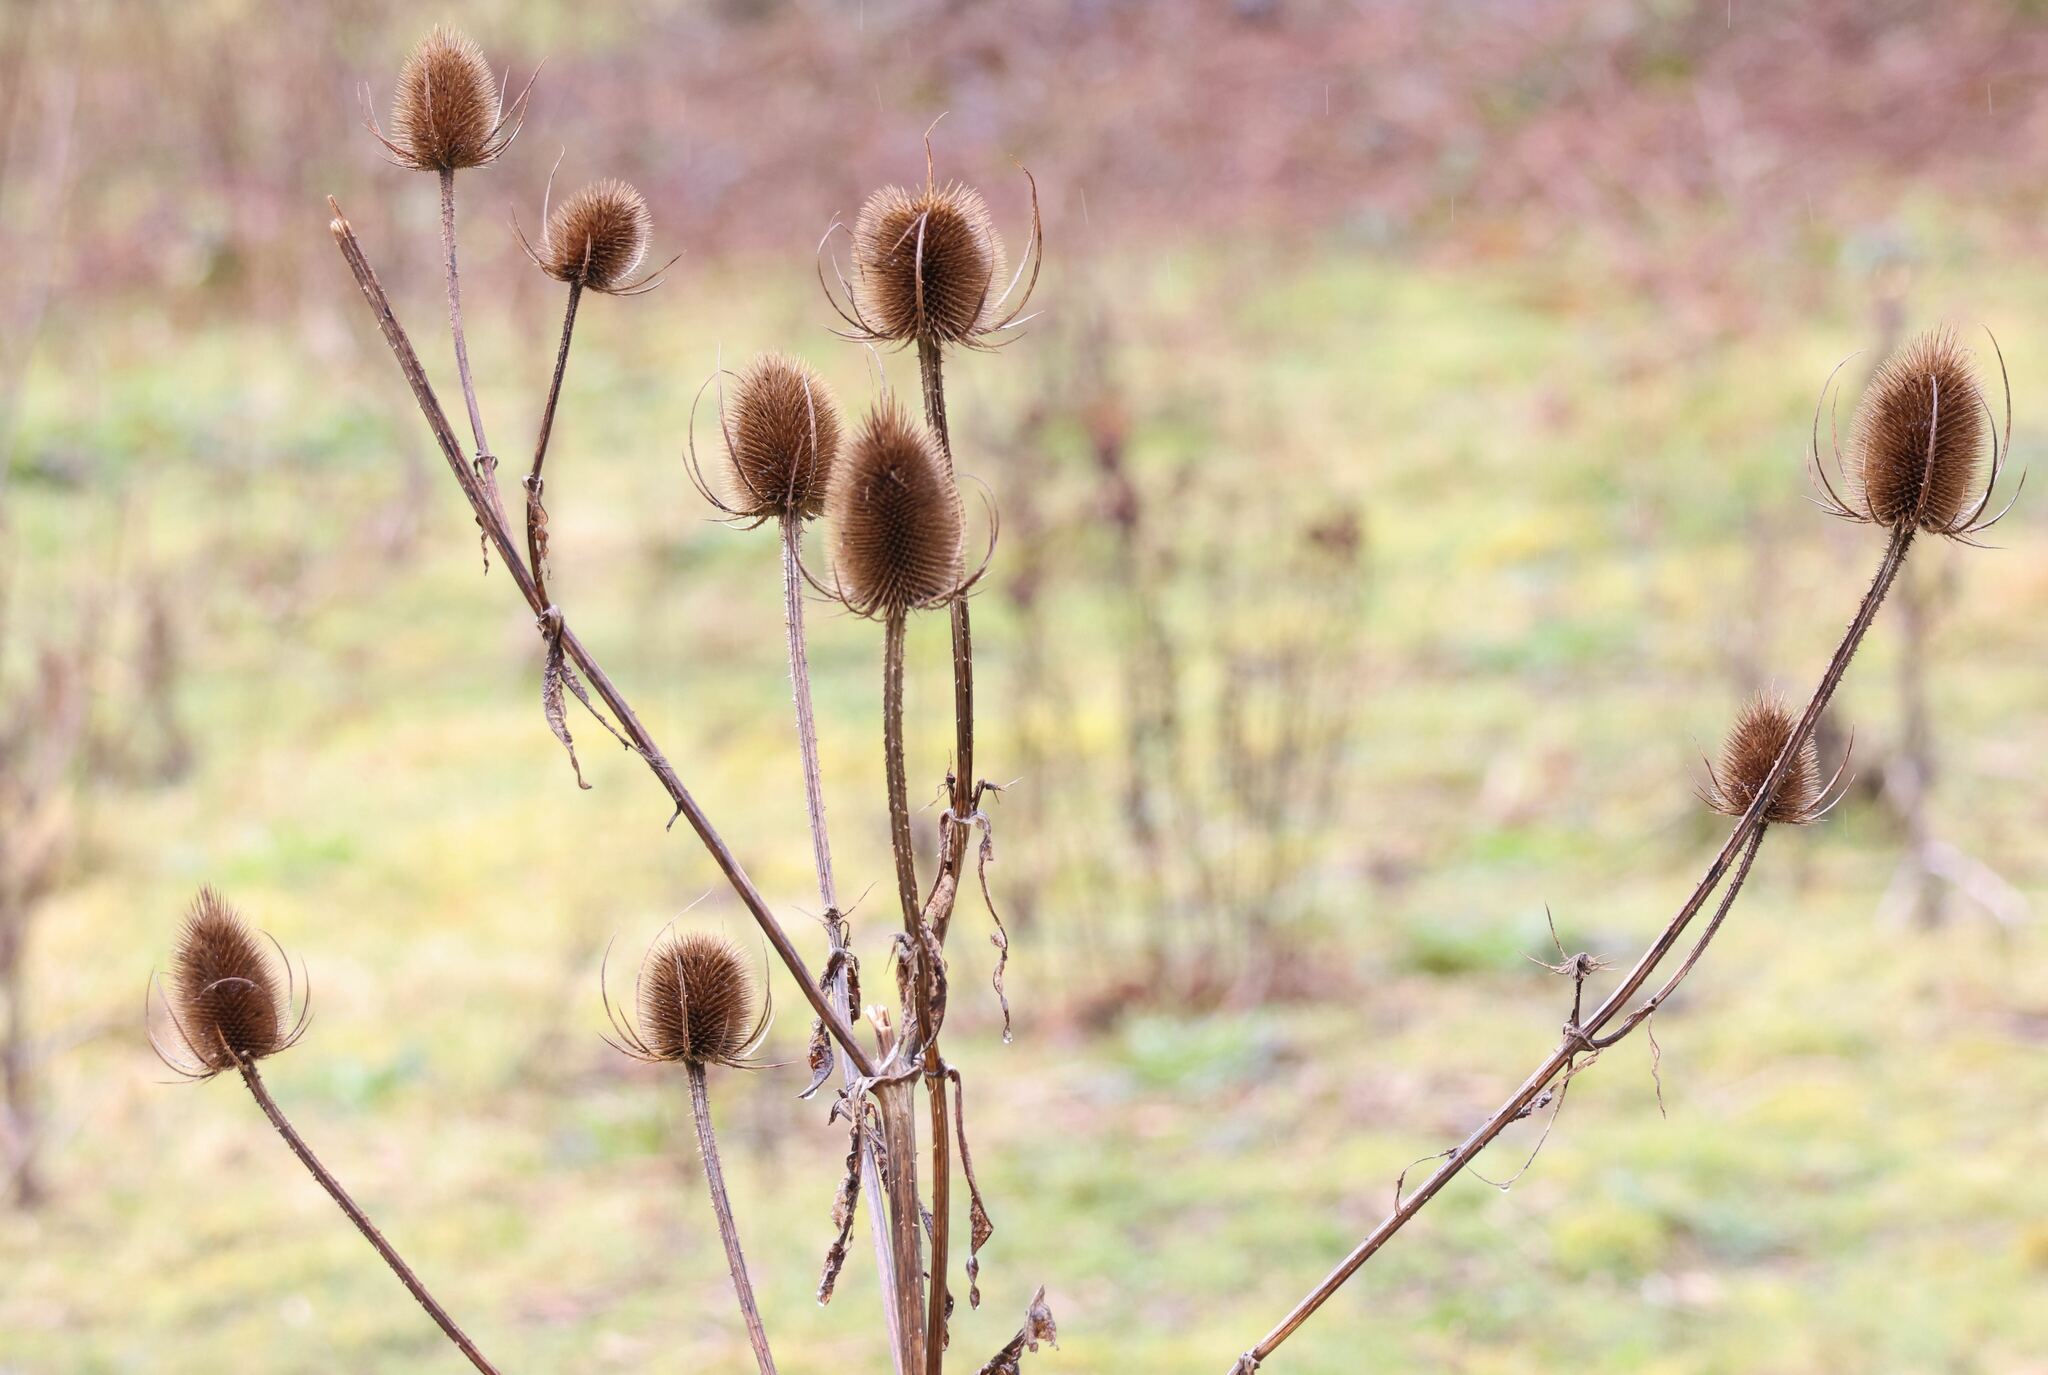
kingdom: Plantae
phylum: Tracheophyta
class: Magnoliopsida
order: Dipsacales
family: Caprifoliaceae
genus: Dipsacus
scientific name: Dipsacus fullonum
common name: Teasel
